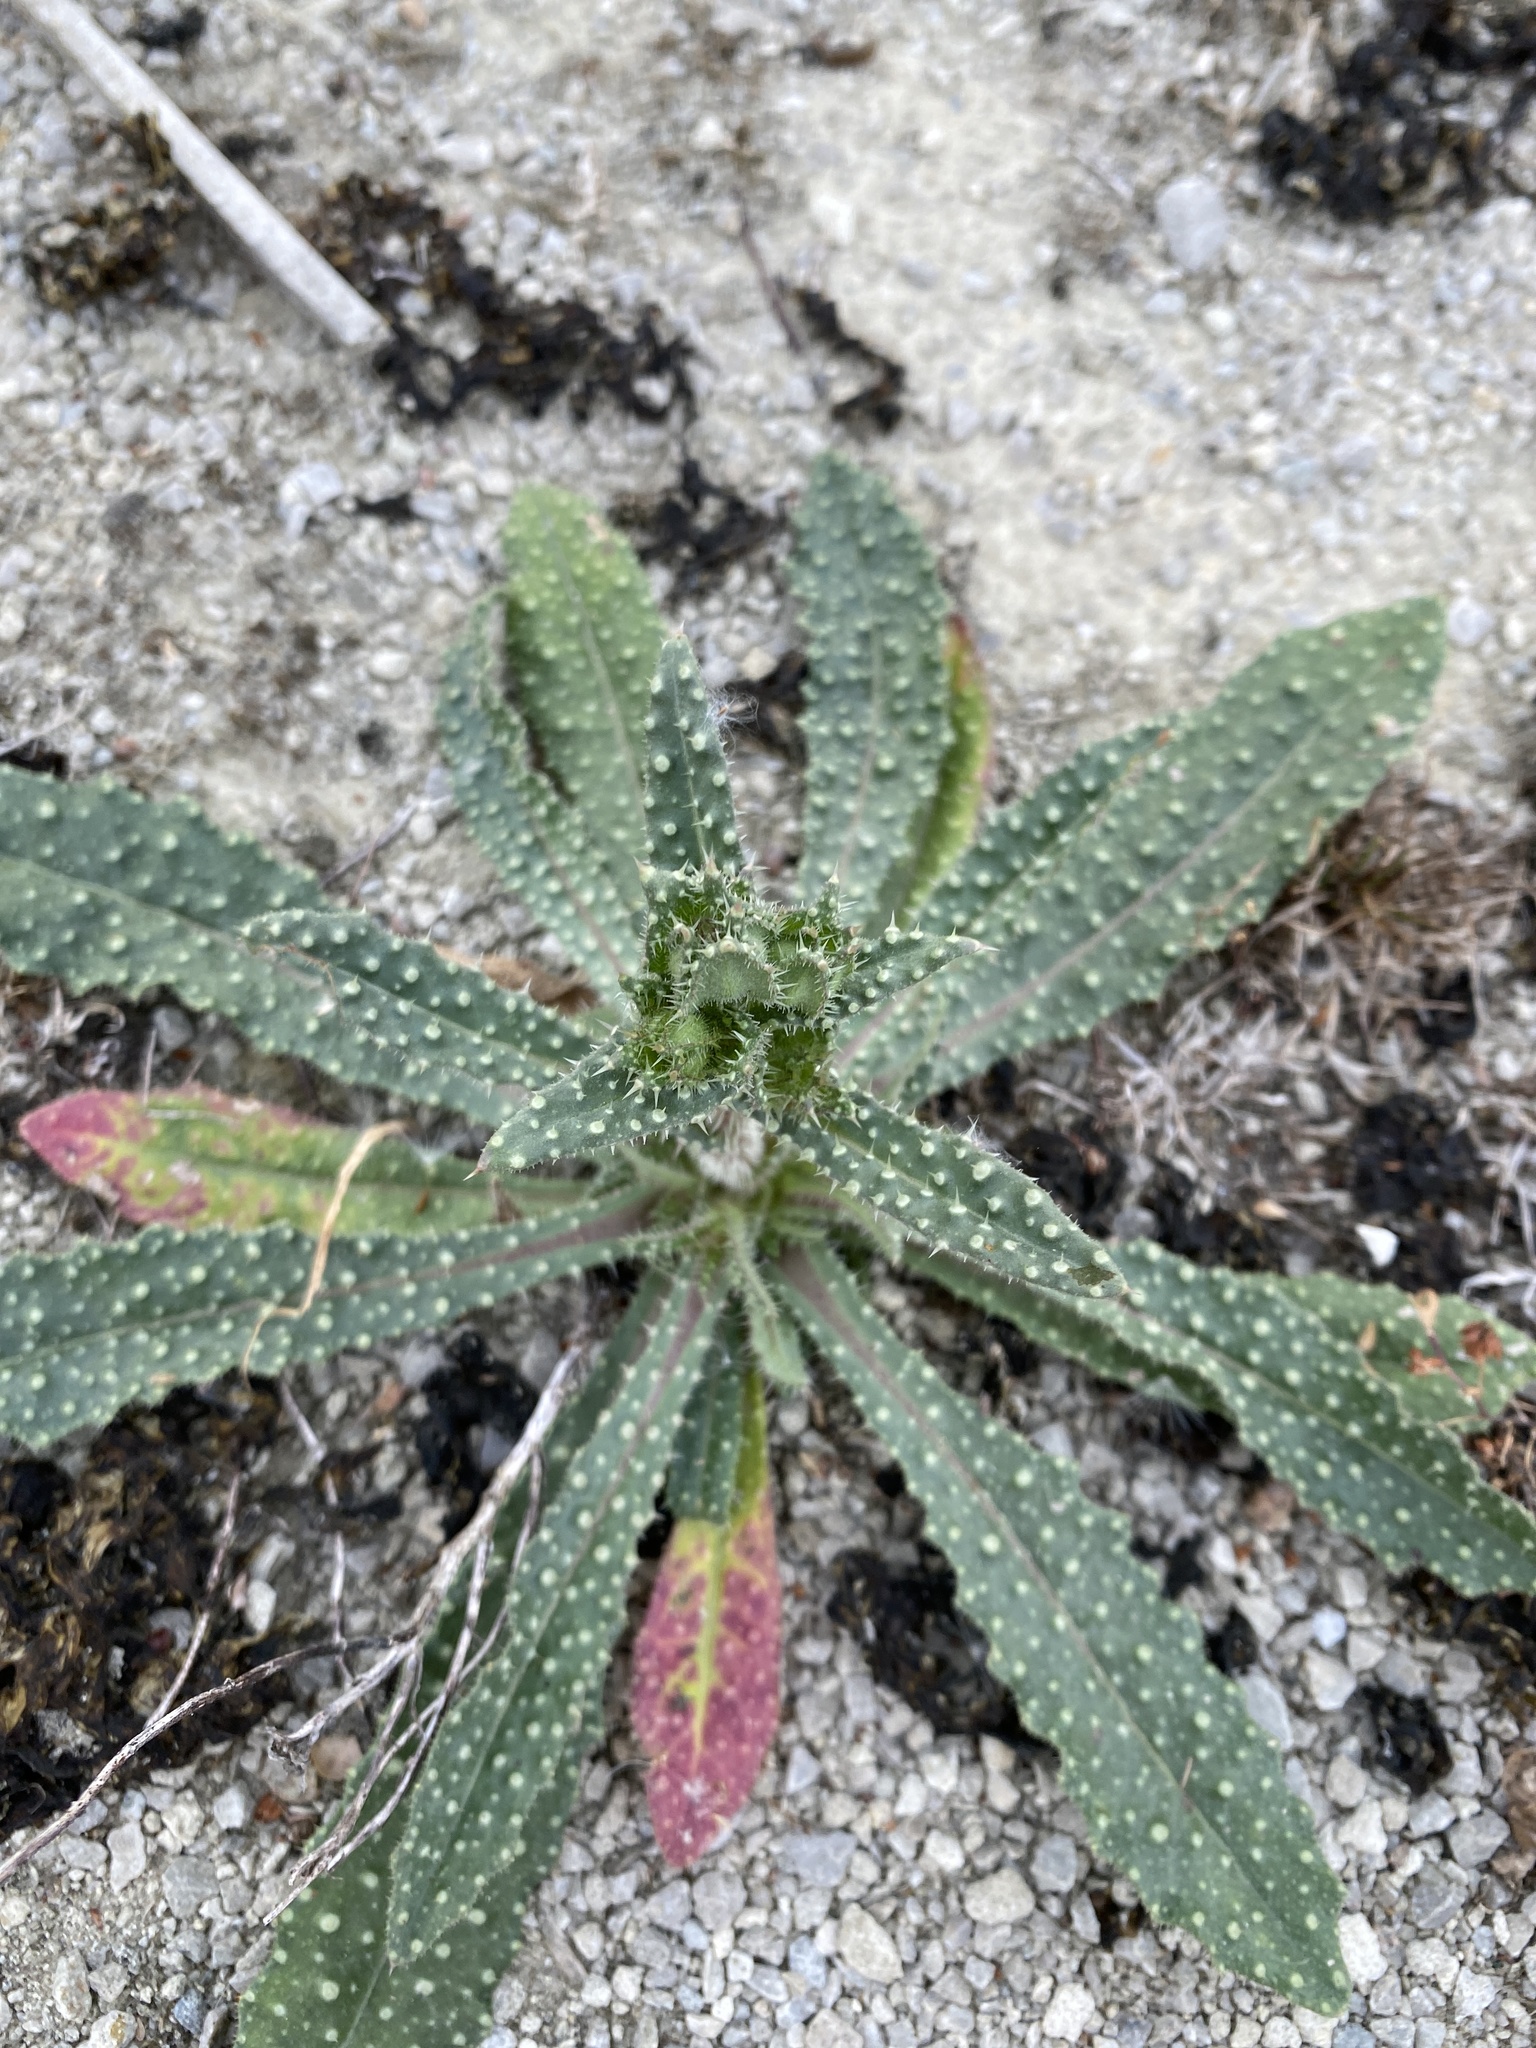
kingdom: Plantae
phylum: Tracheophyta
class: Magnoliopsida
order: Asterales
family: Asteraceae
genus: Helminthotheca
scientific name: Helminthotheca echioides
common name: Ox-tongue
